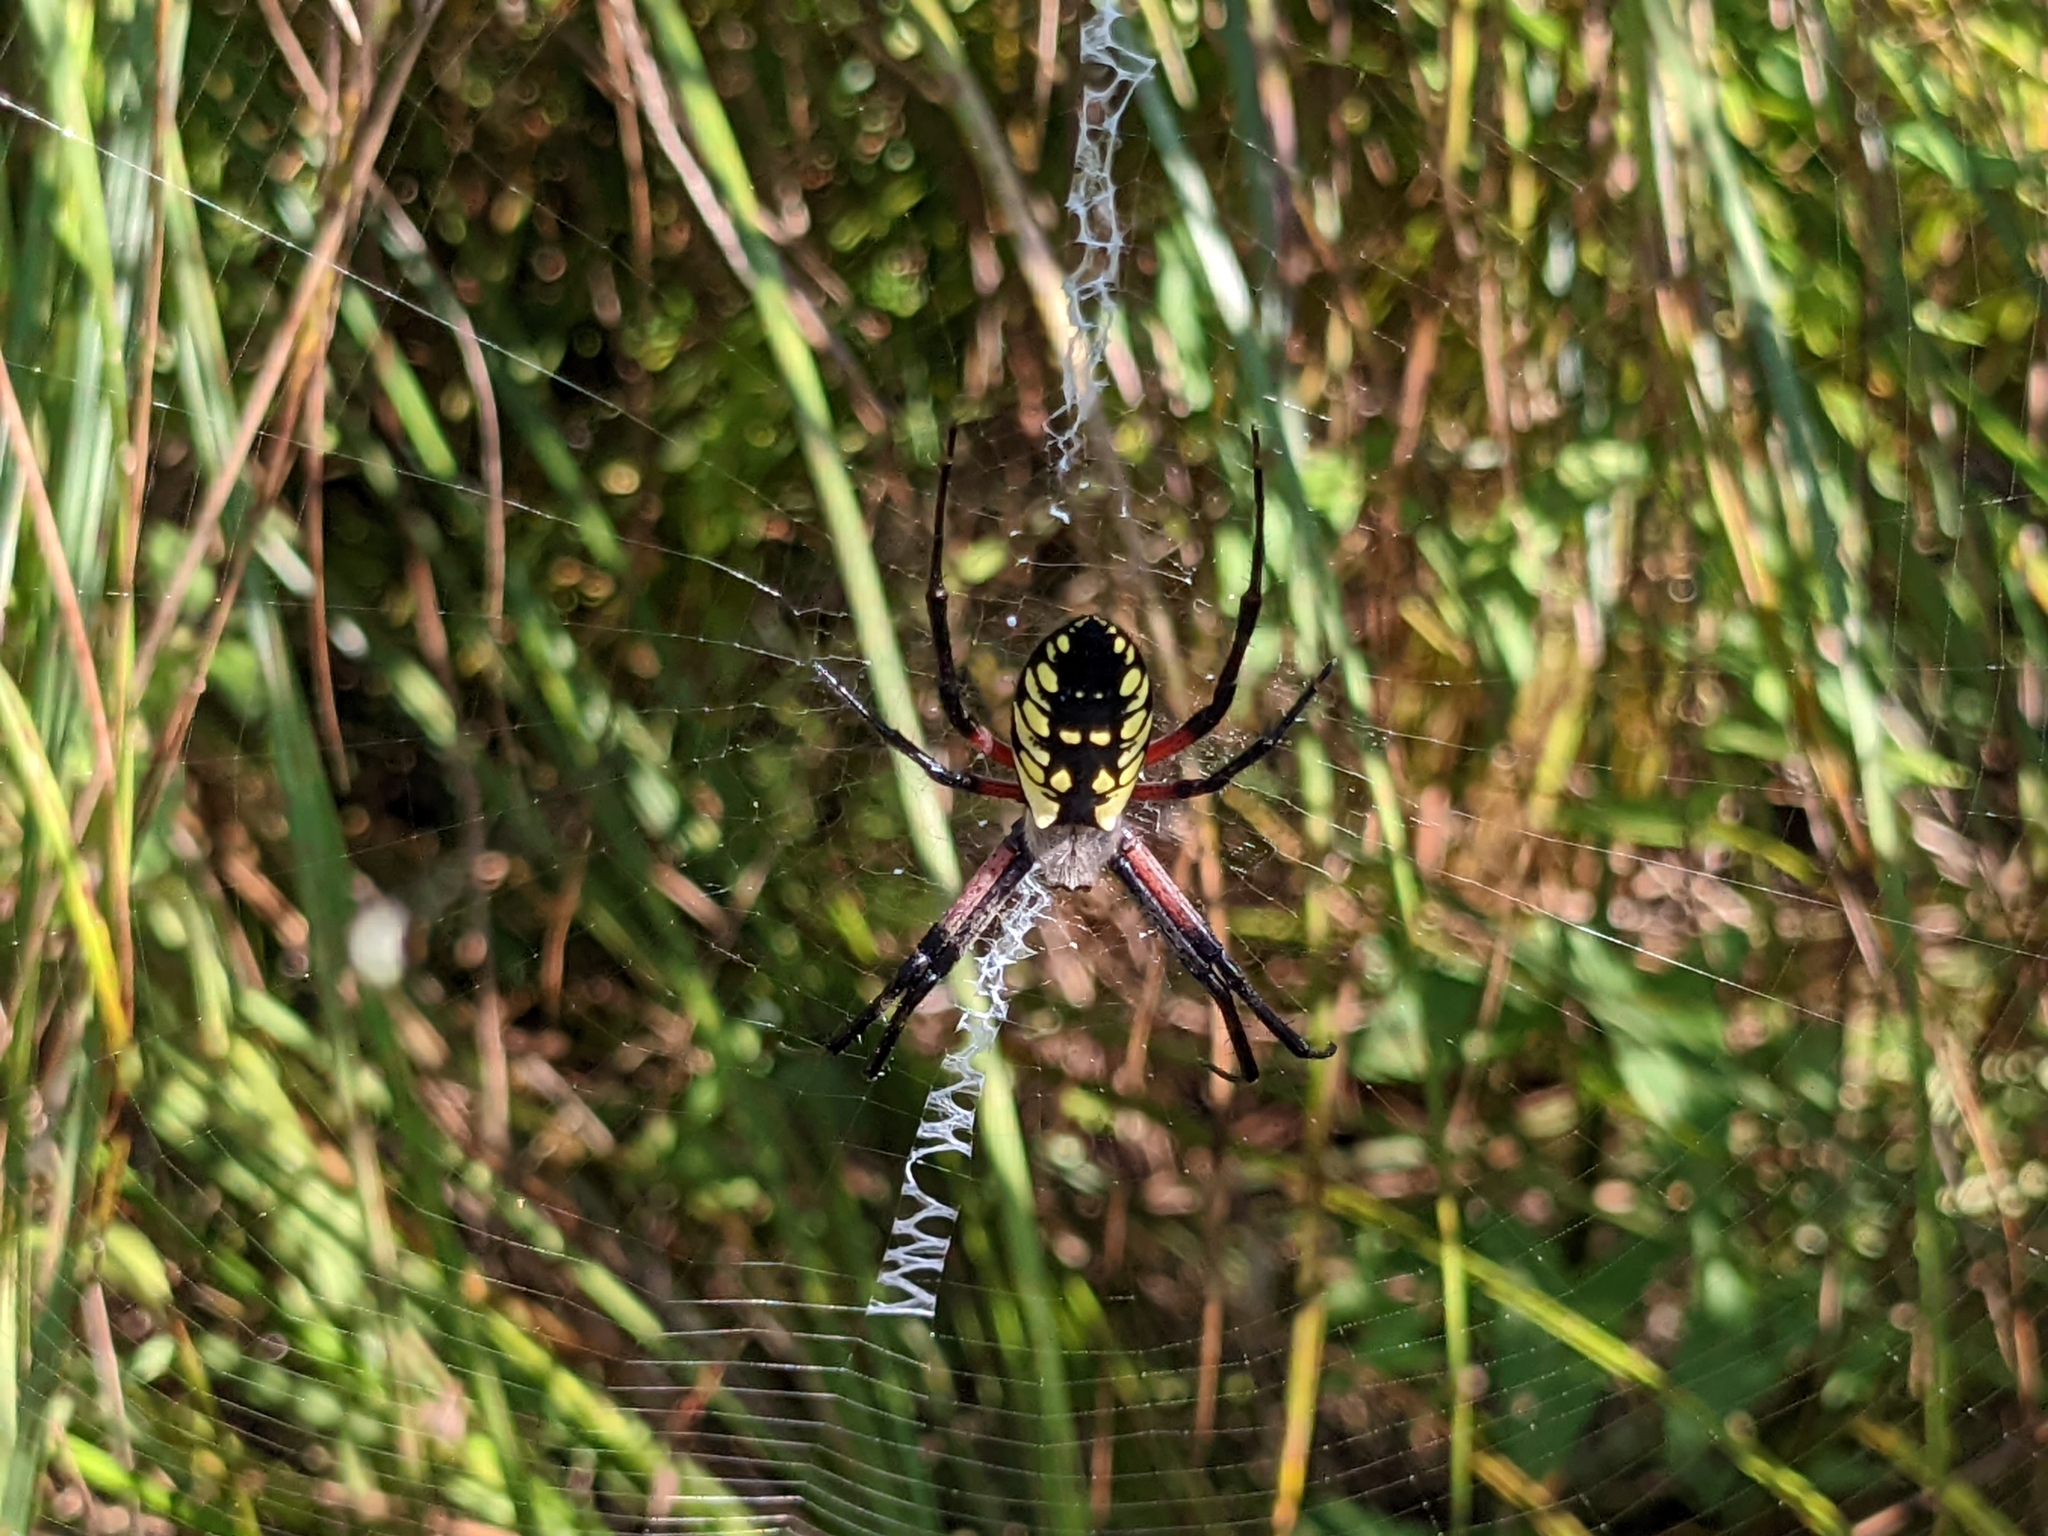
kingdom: Animalia
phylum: Arthropoda
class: Arachnida
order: Araneae
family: Araneidae
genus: Argiope
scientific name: Argiope aurantia
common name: Orb weavers
